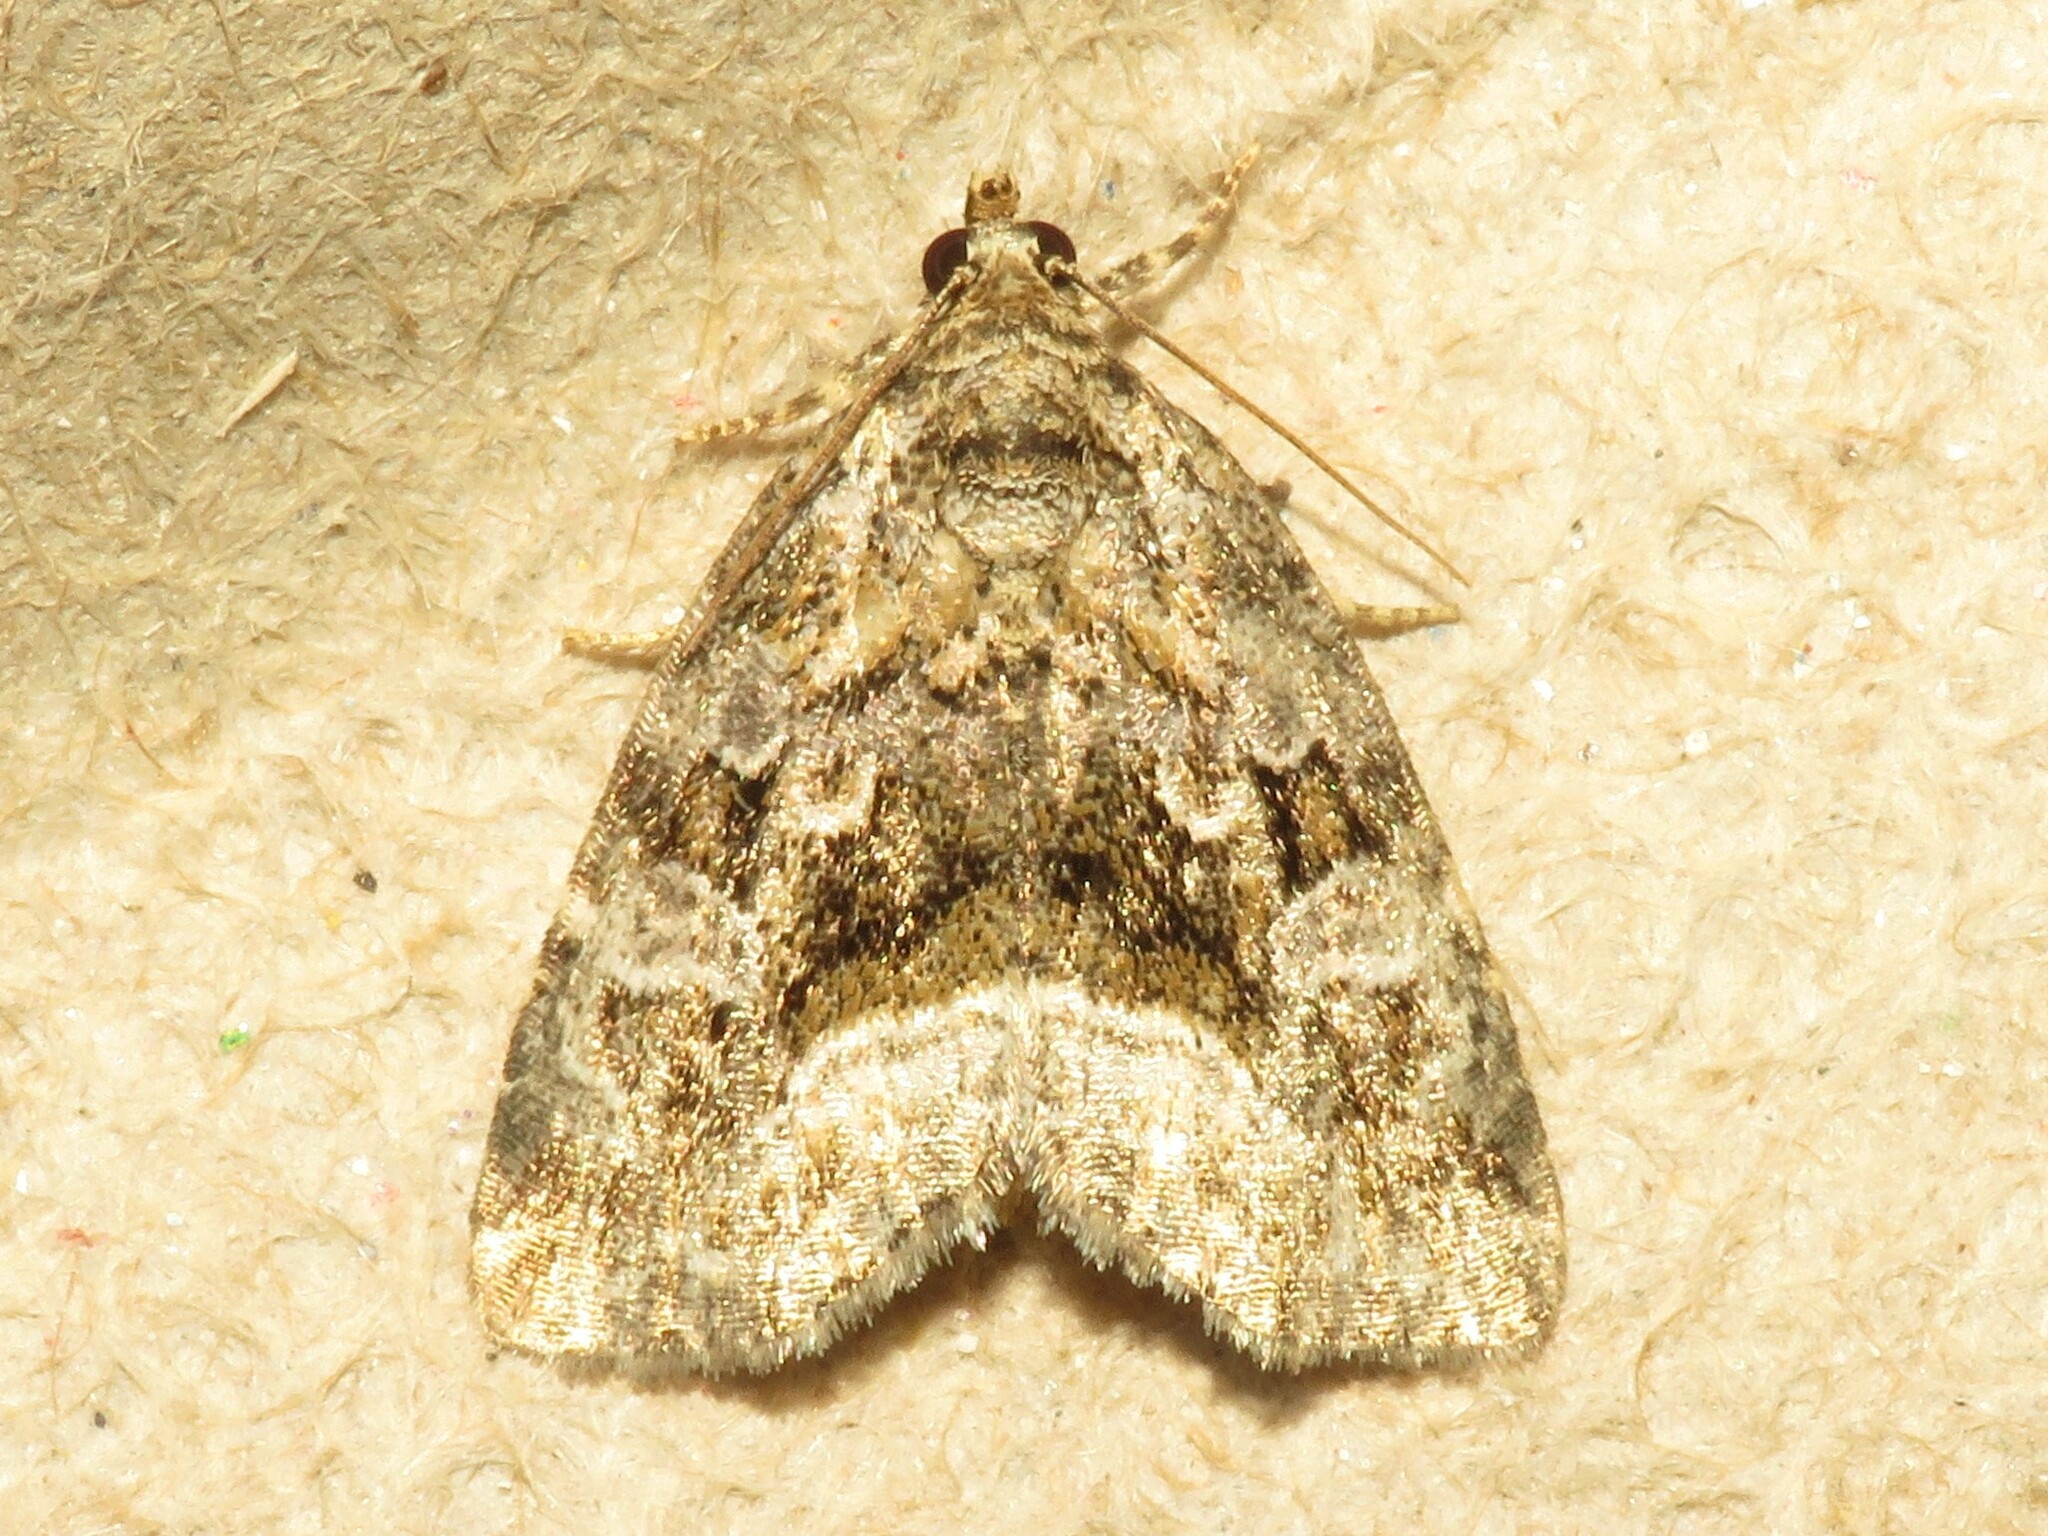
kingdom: Animalia
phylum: Arthropoda
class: Insecta
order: Lepidoptera
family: Noctuidae
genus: Protodeltote
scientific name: Protodeltote muscosula
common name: Large mossy glyph
